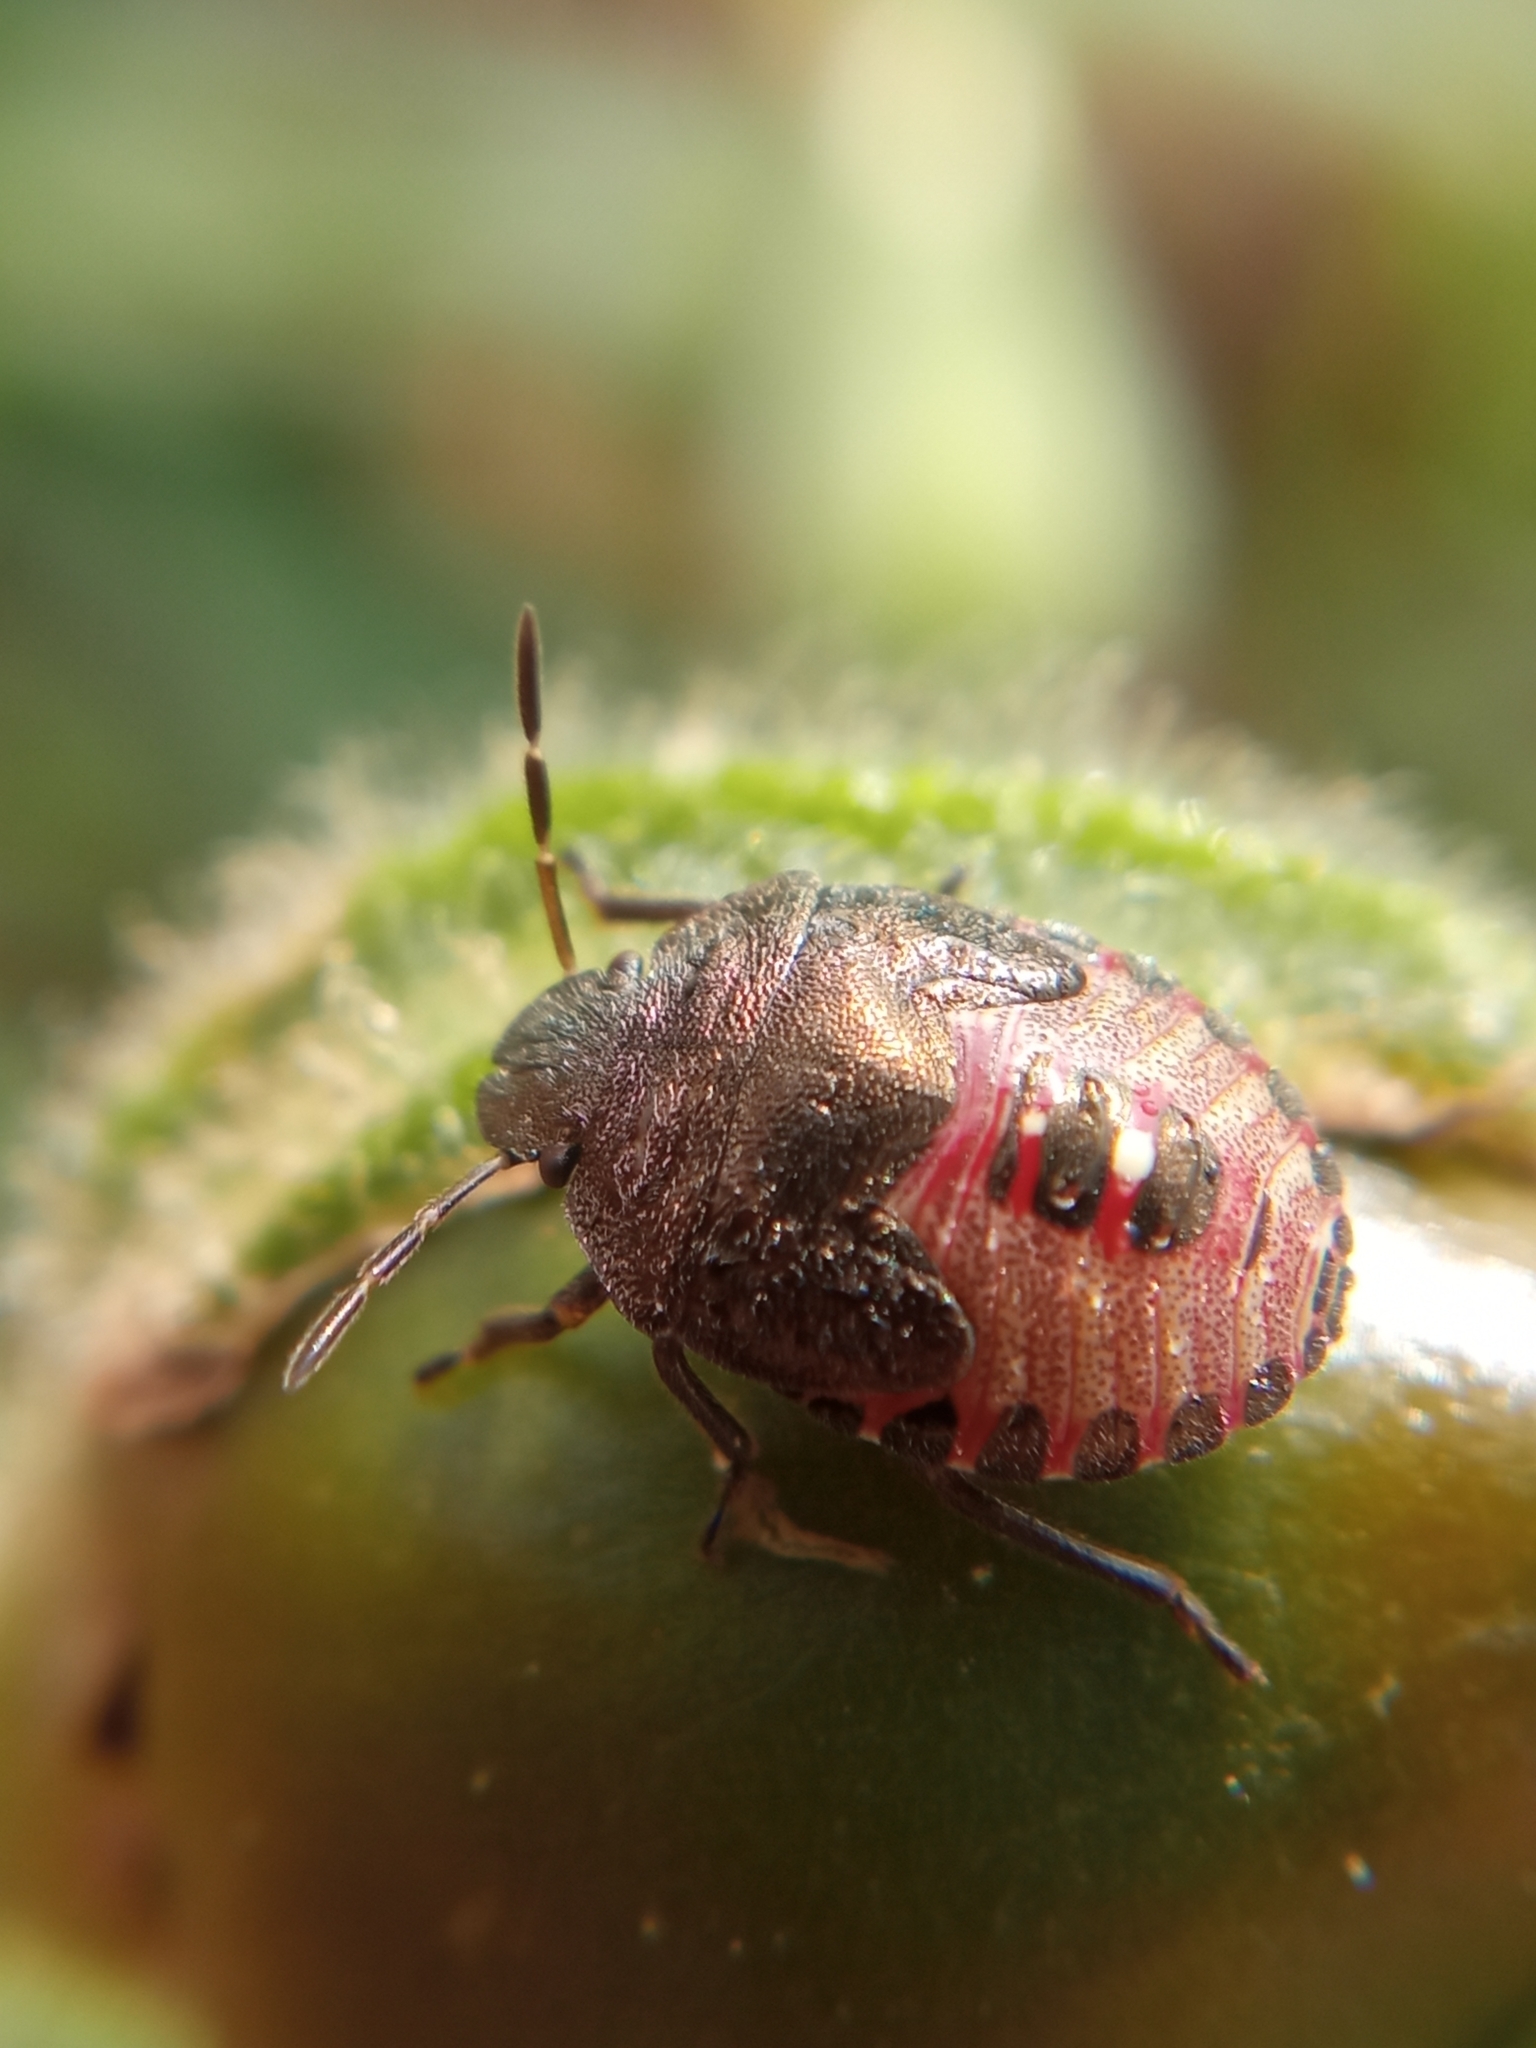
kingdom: Animalia
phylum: Arthropoda
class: Insecta
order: Hemiptera
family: Pentatomidae
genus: Holcostethus
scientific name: Holcostethus strictus
